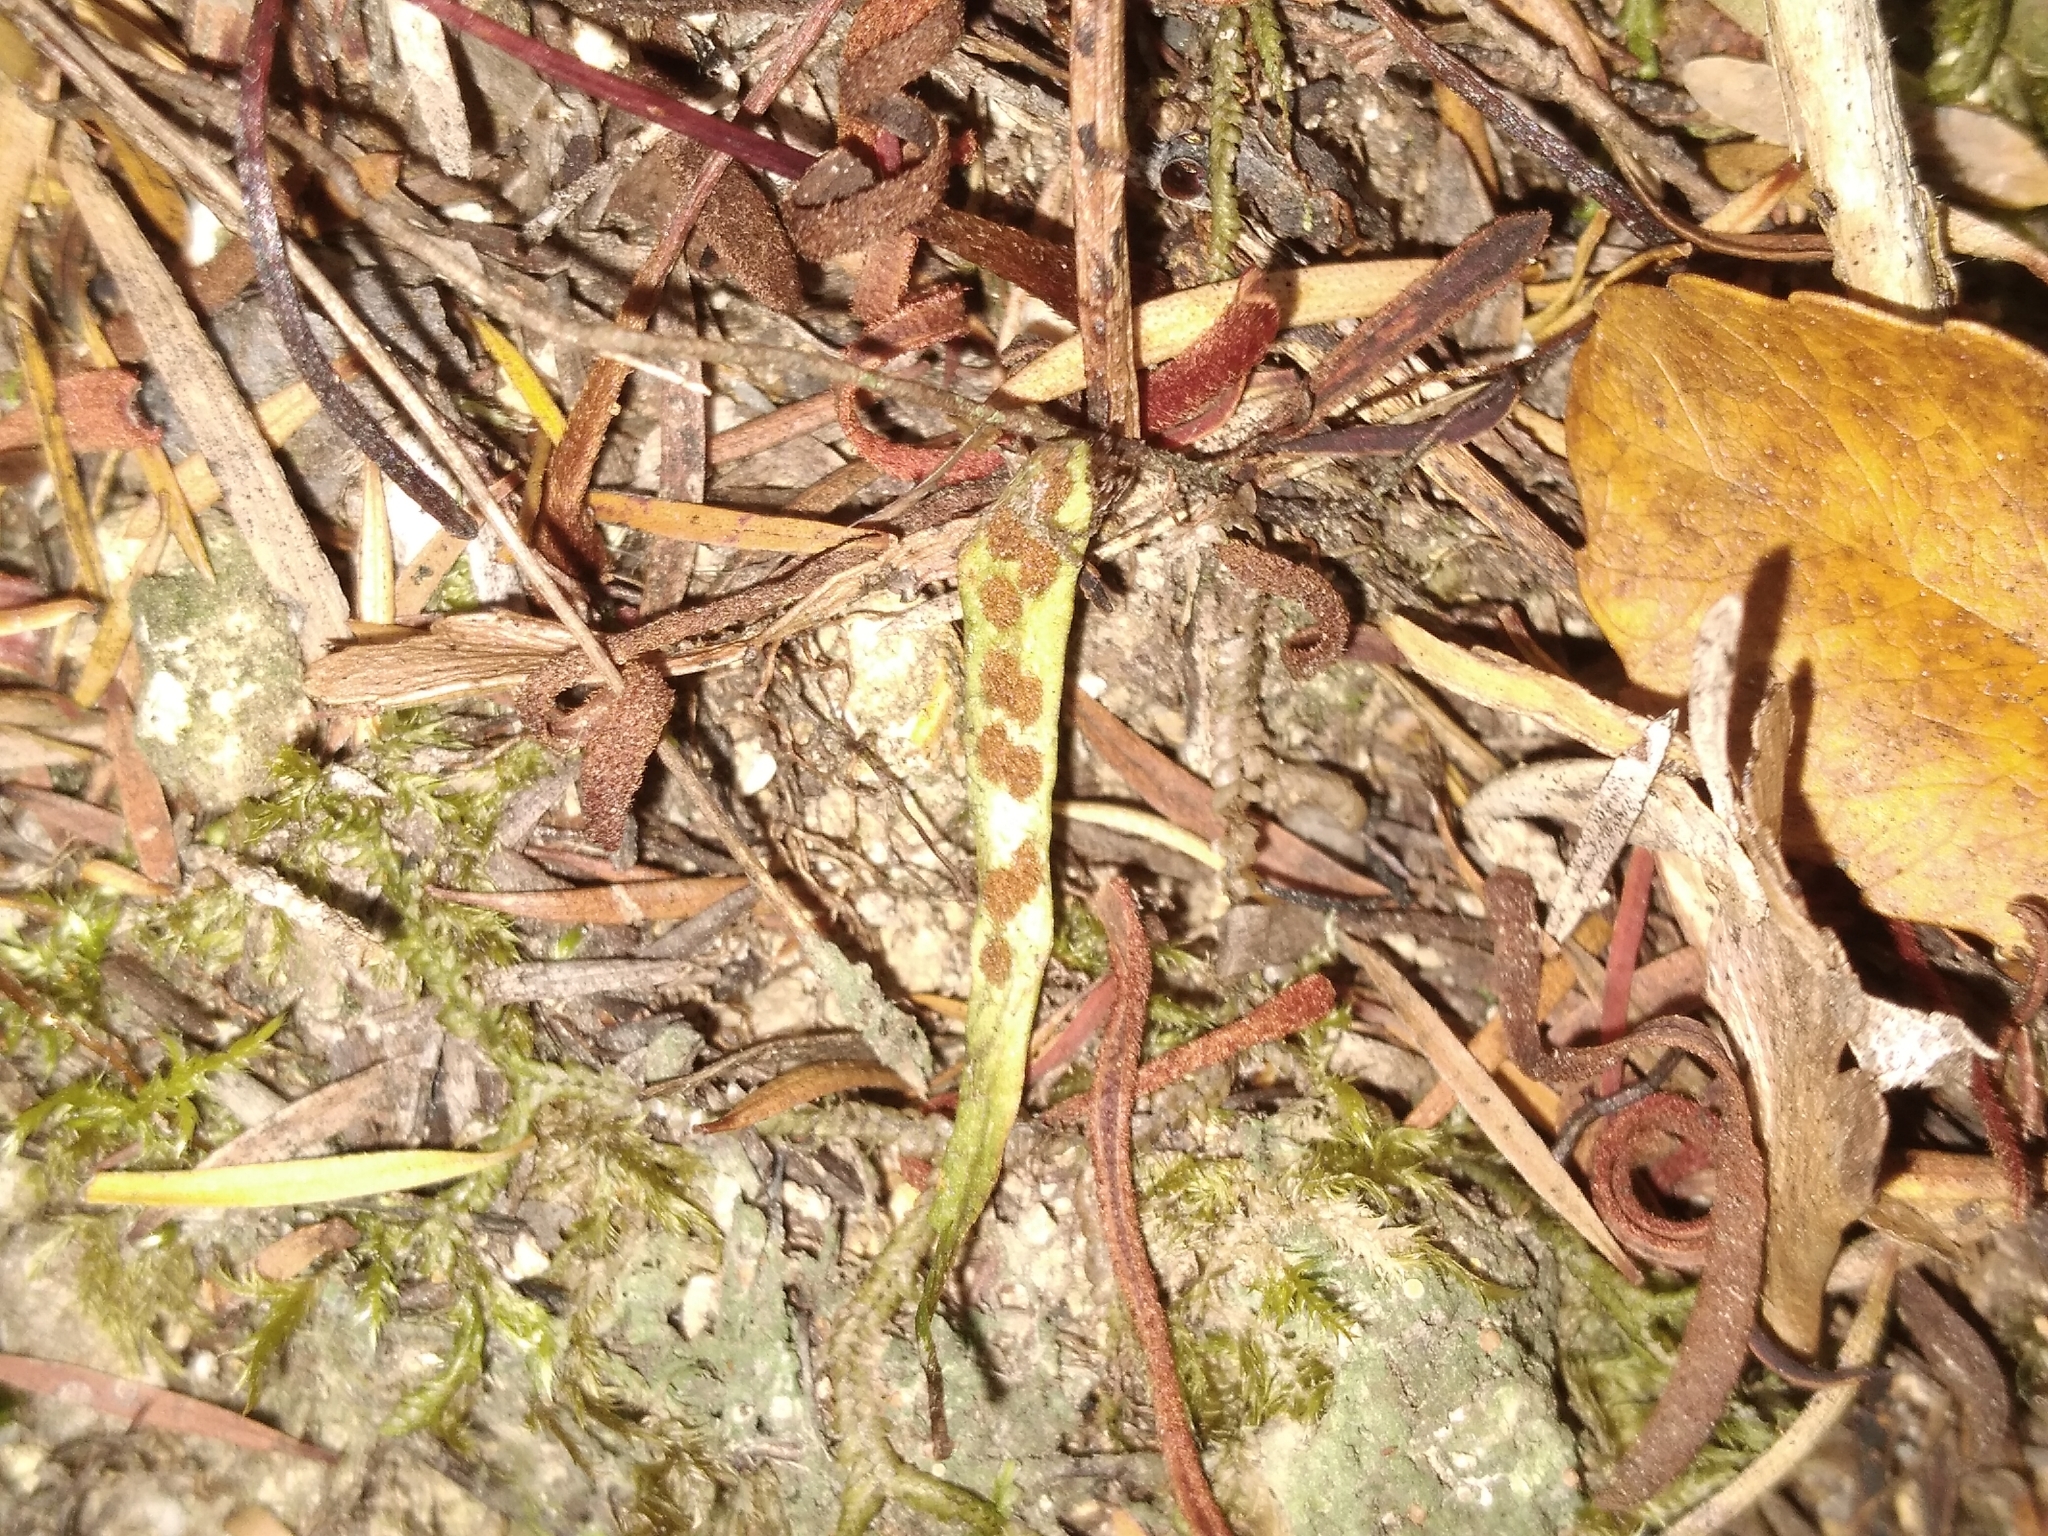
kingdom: Plantae
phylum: Tracheophyta
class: Polypodiopsida
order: Polypodiales
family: Polypodiaceae
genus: Notogrammitis
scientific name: Notogrammitis ciliata
